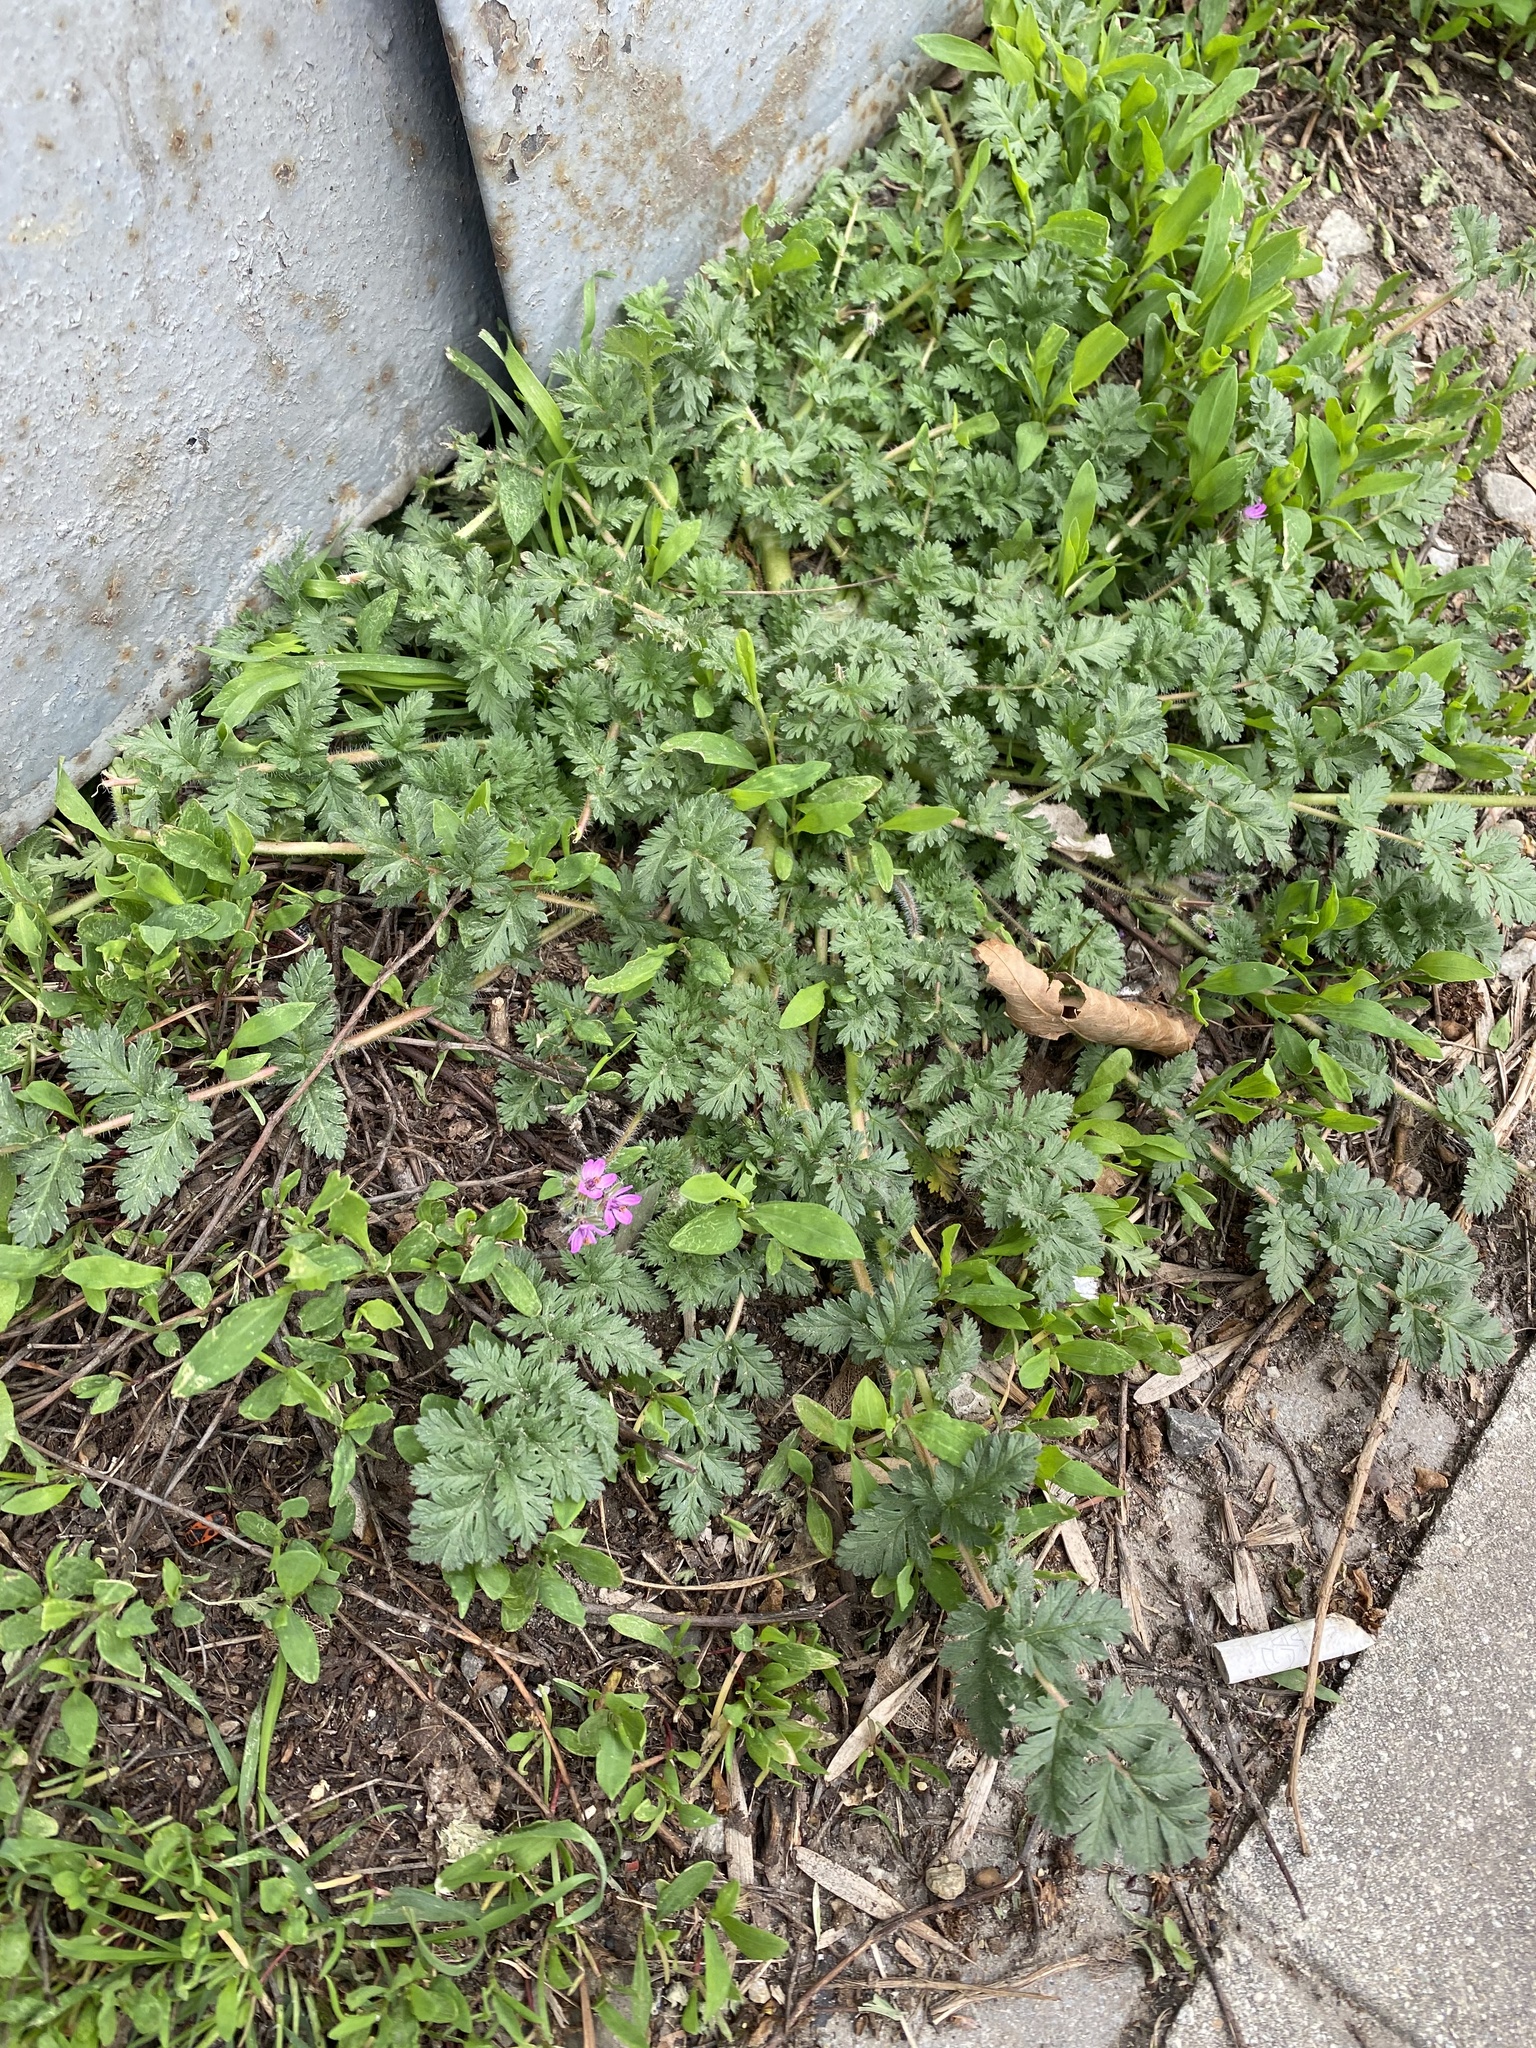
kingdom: Plantae
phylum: Tracheophyta
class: Magnoliopsida
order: Geraniales
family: Geraniaceae
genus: Erodium
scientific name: Erodium cicutarium
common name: Common stork's-bill
